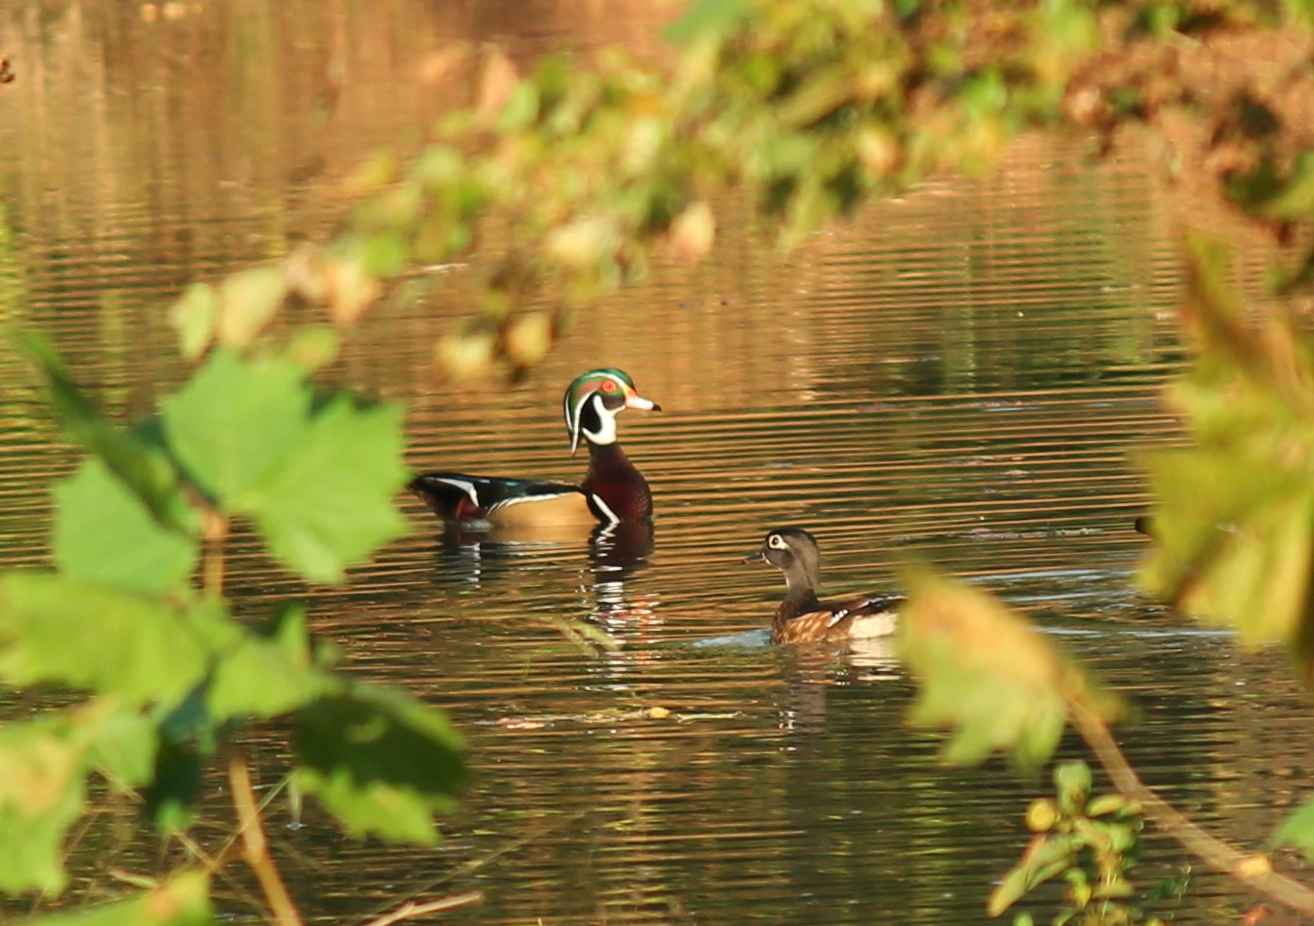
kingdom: Animalia
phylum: Chordata
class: Aves
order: Anseriformes
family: Anatidae
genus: Aix
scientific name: Aix sponsa
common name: Wood duck
